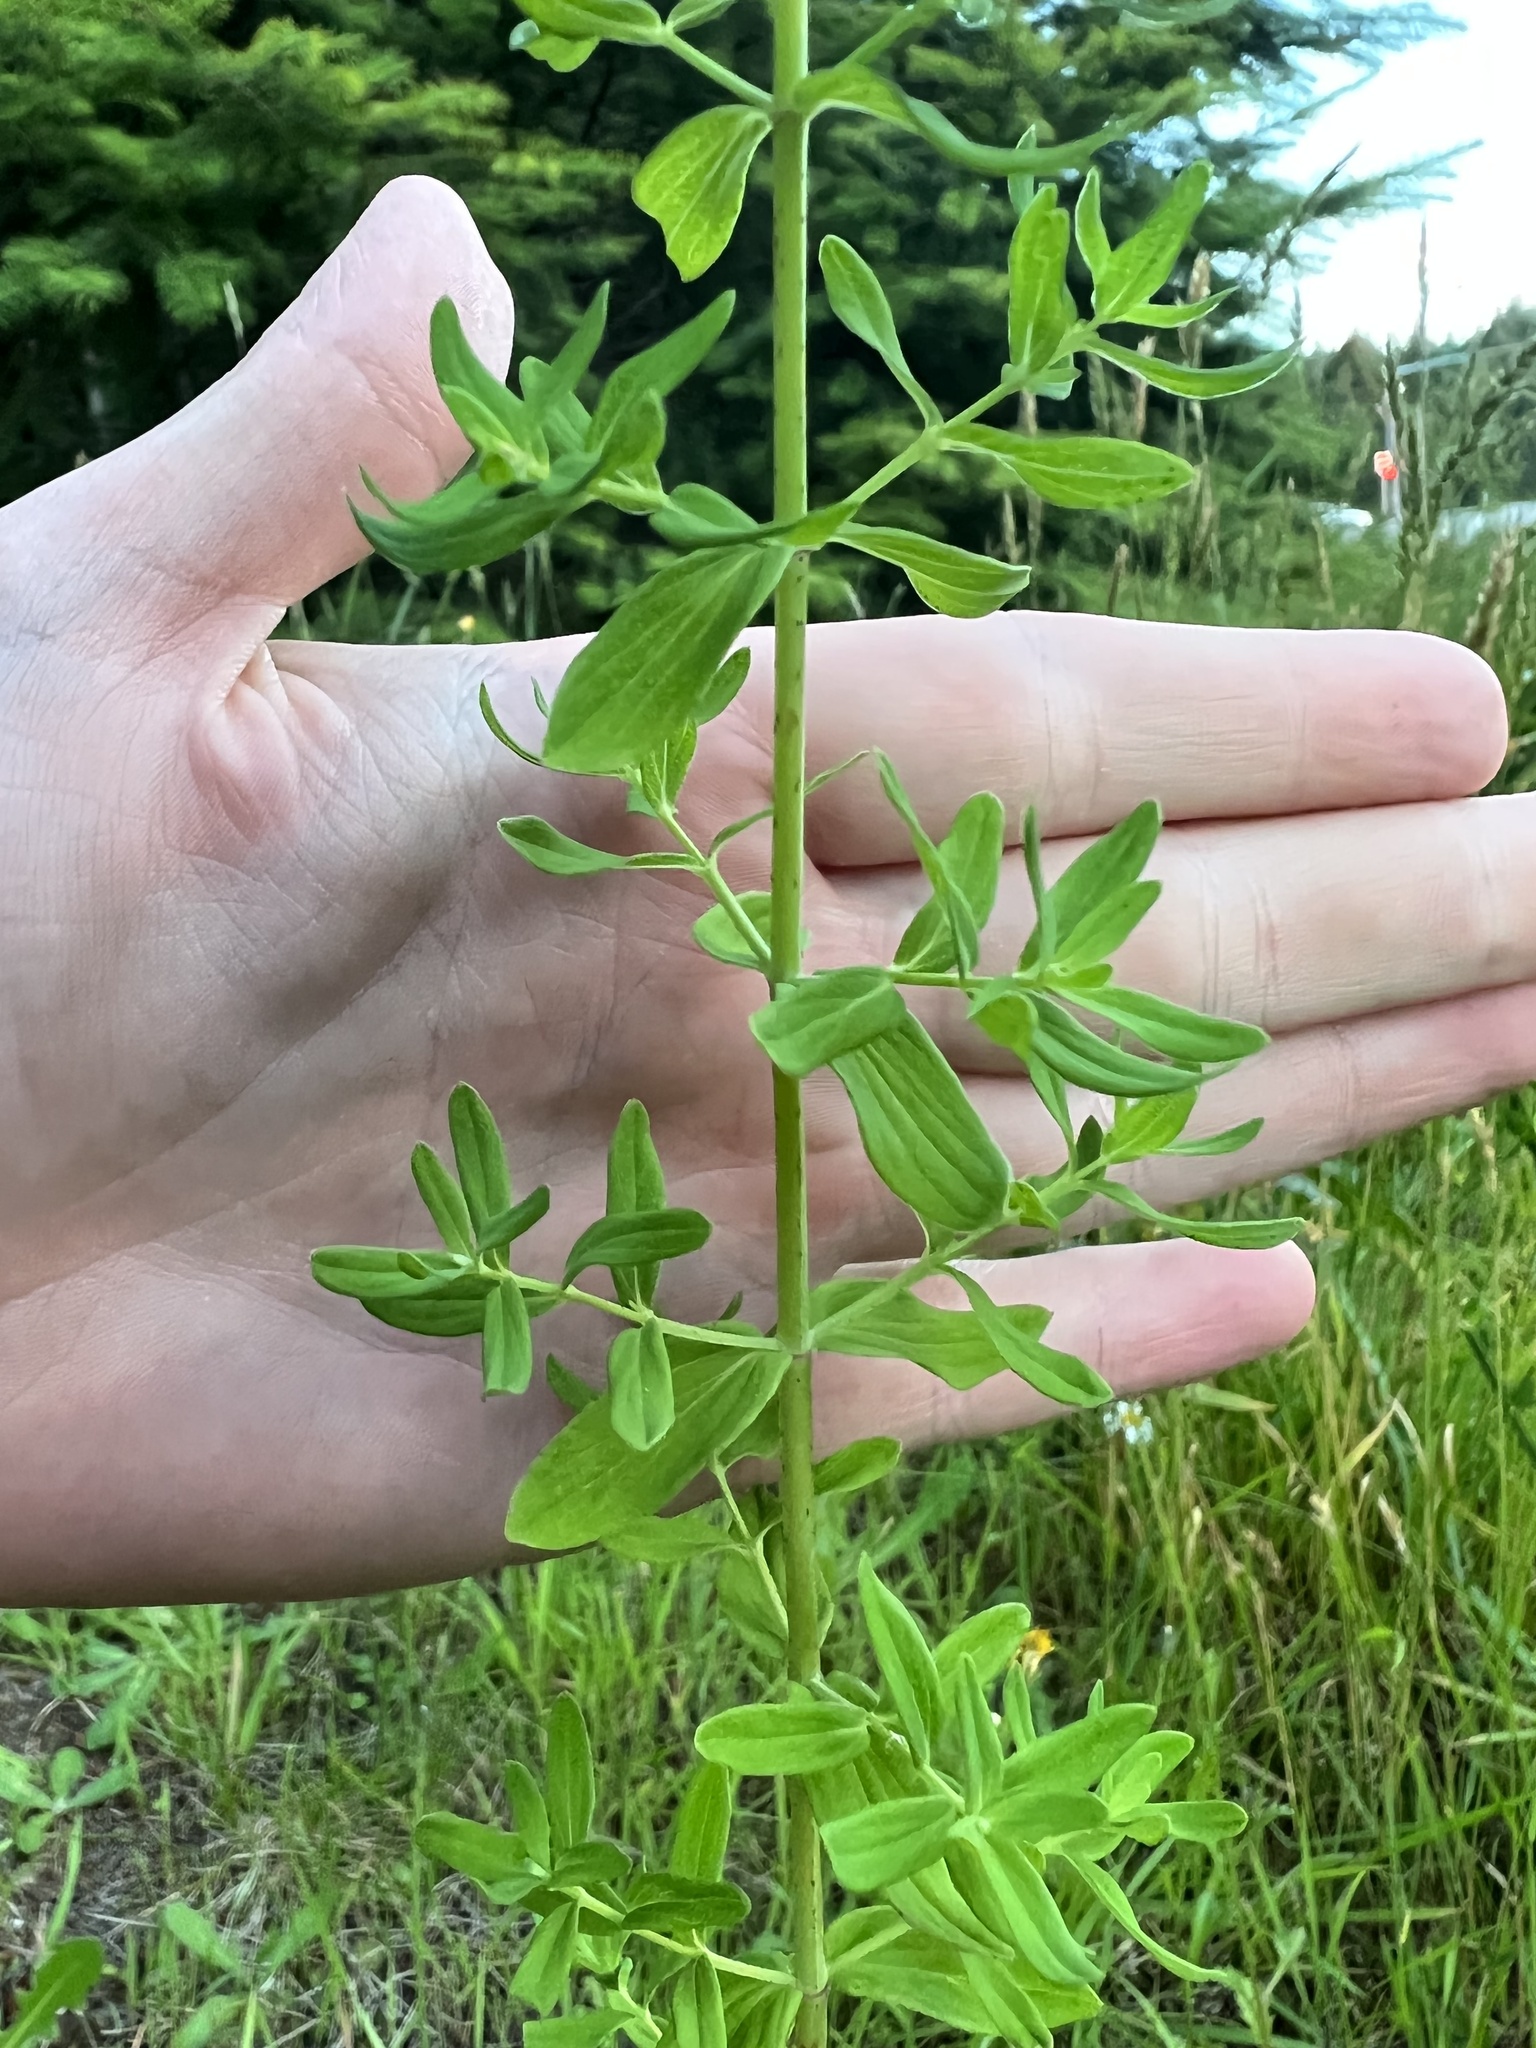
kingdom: Plantae
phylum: Tracheophyta
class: Magnoliopsida
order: Malpighiales
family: Hypericaceae
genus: Hypericum
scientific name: Hypericum perforatum
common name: Common st. johnswort
